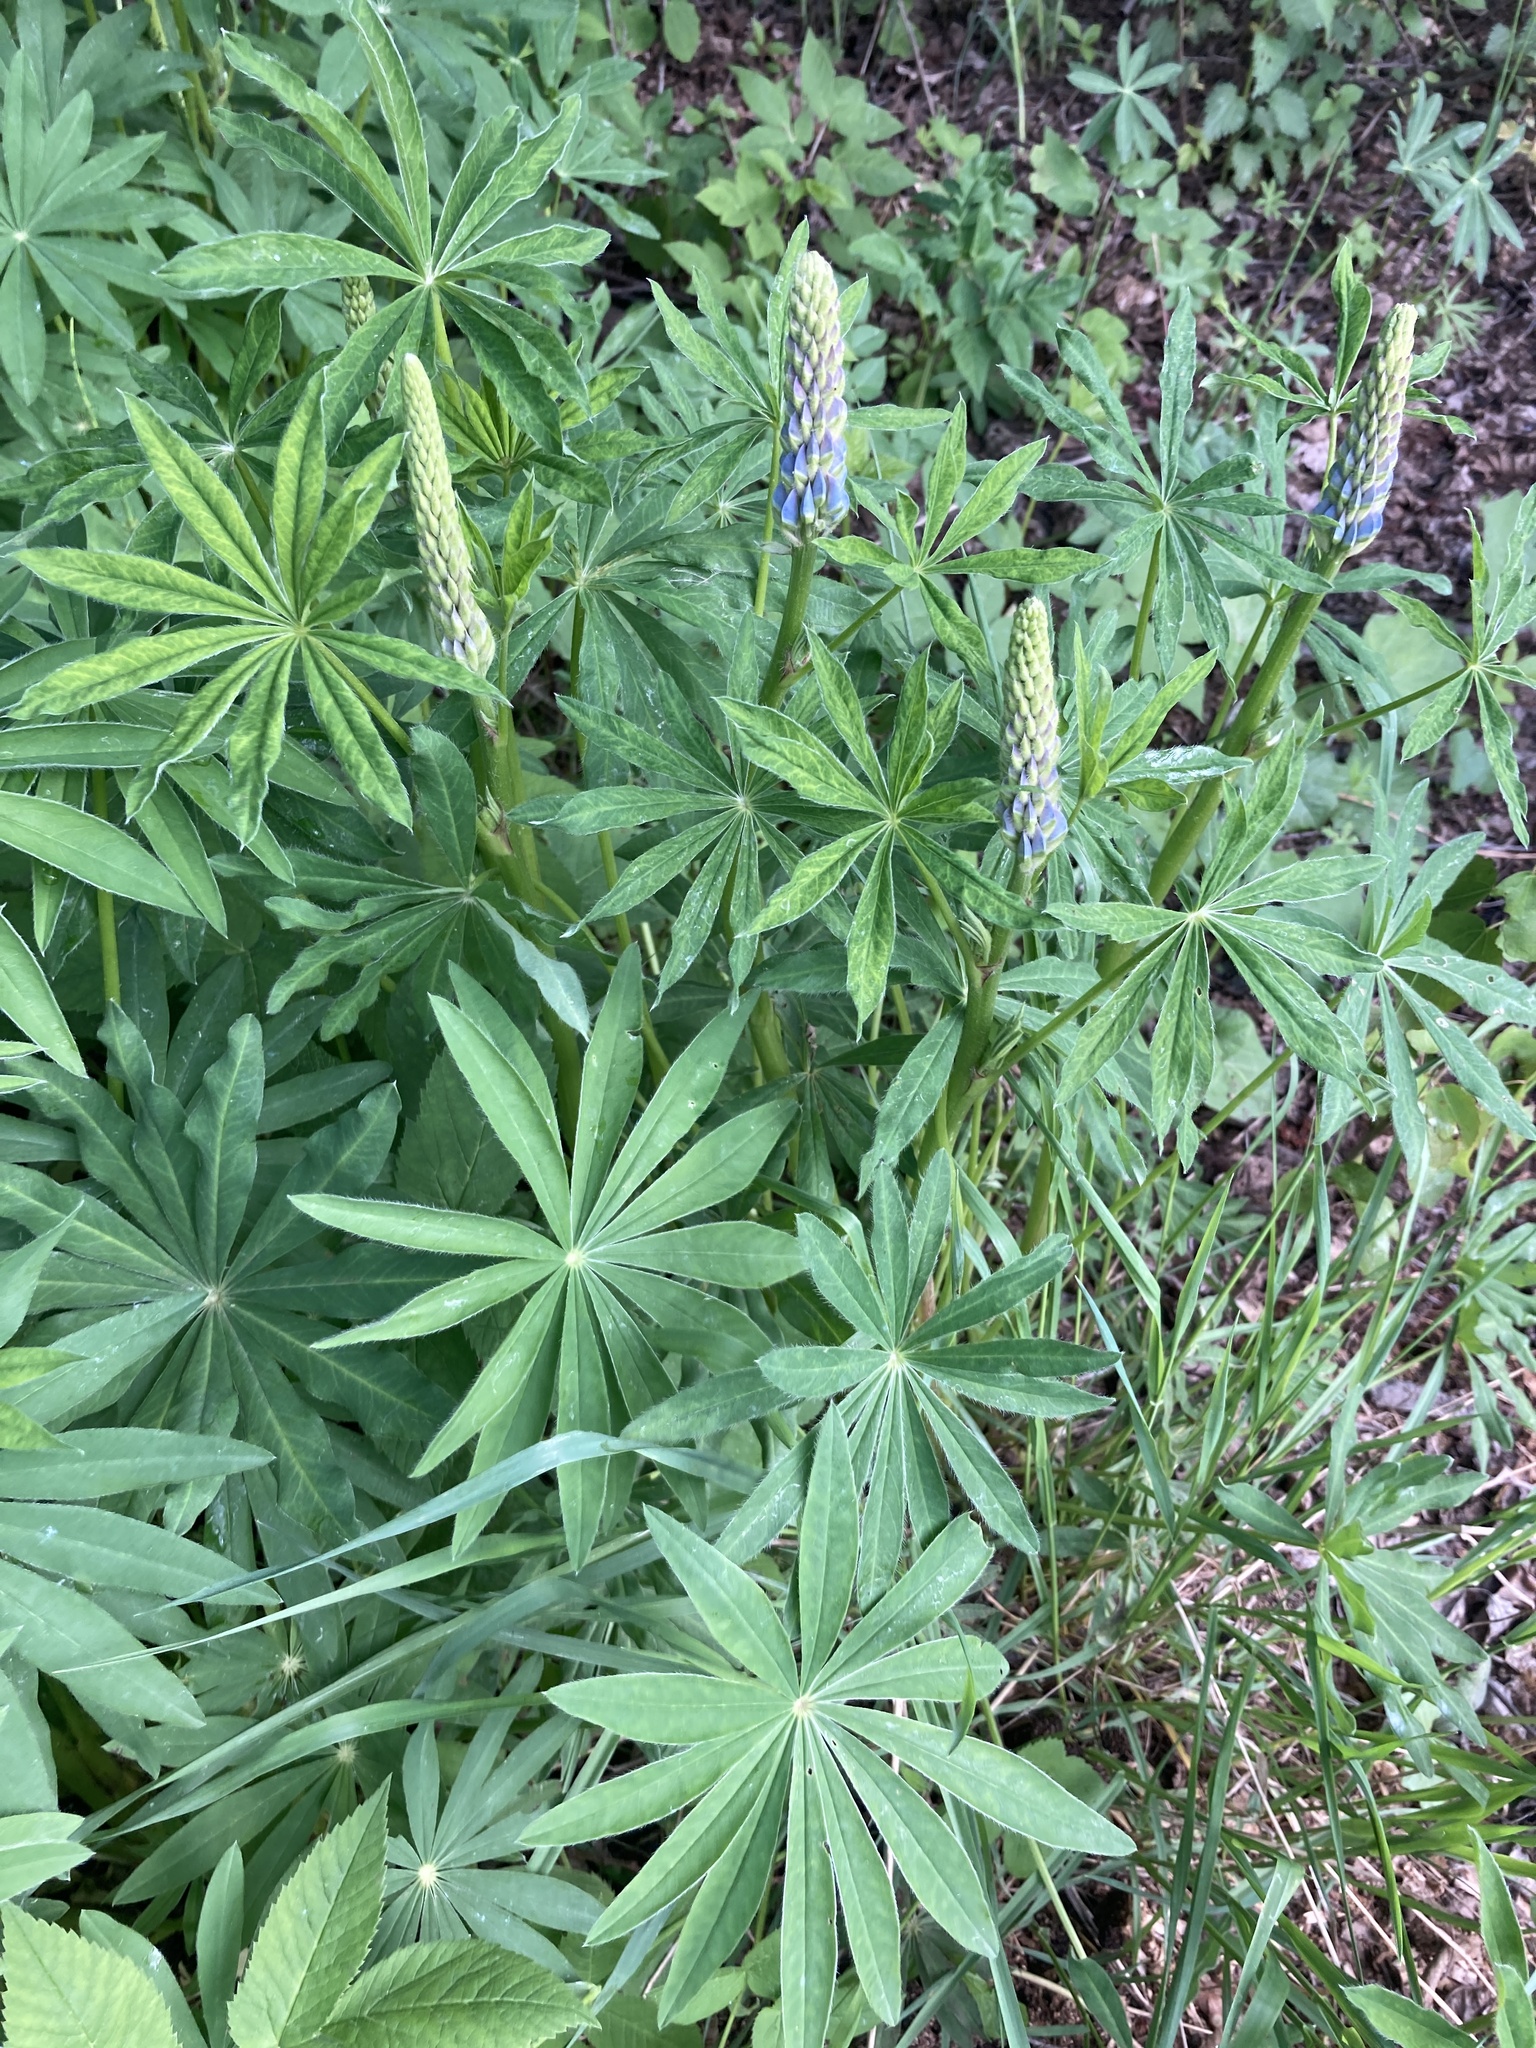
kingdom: Plantae
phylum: Tracheophyta
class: Magnoliopsida
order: Fabales
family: Fabaceae
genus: Lupinus
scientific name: Lupinus polyphyllus
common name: Garden lupin
